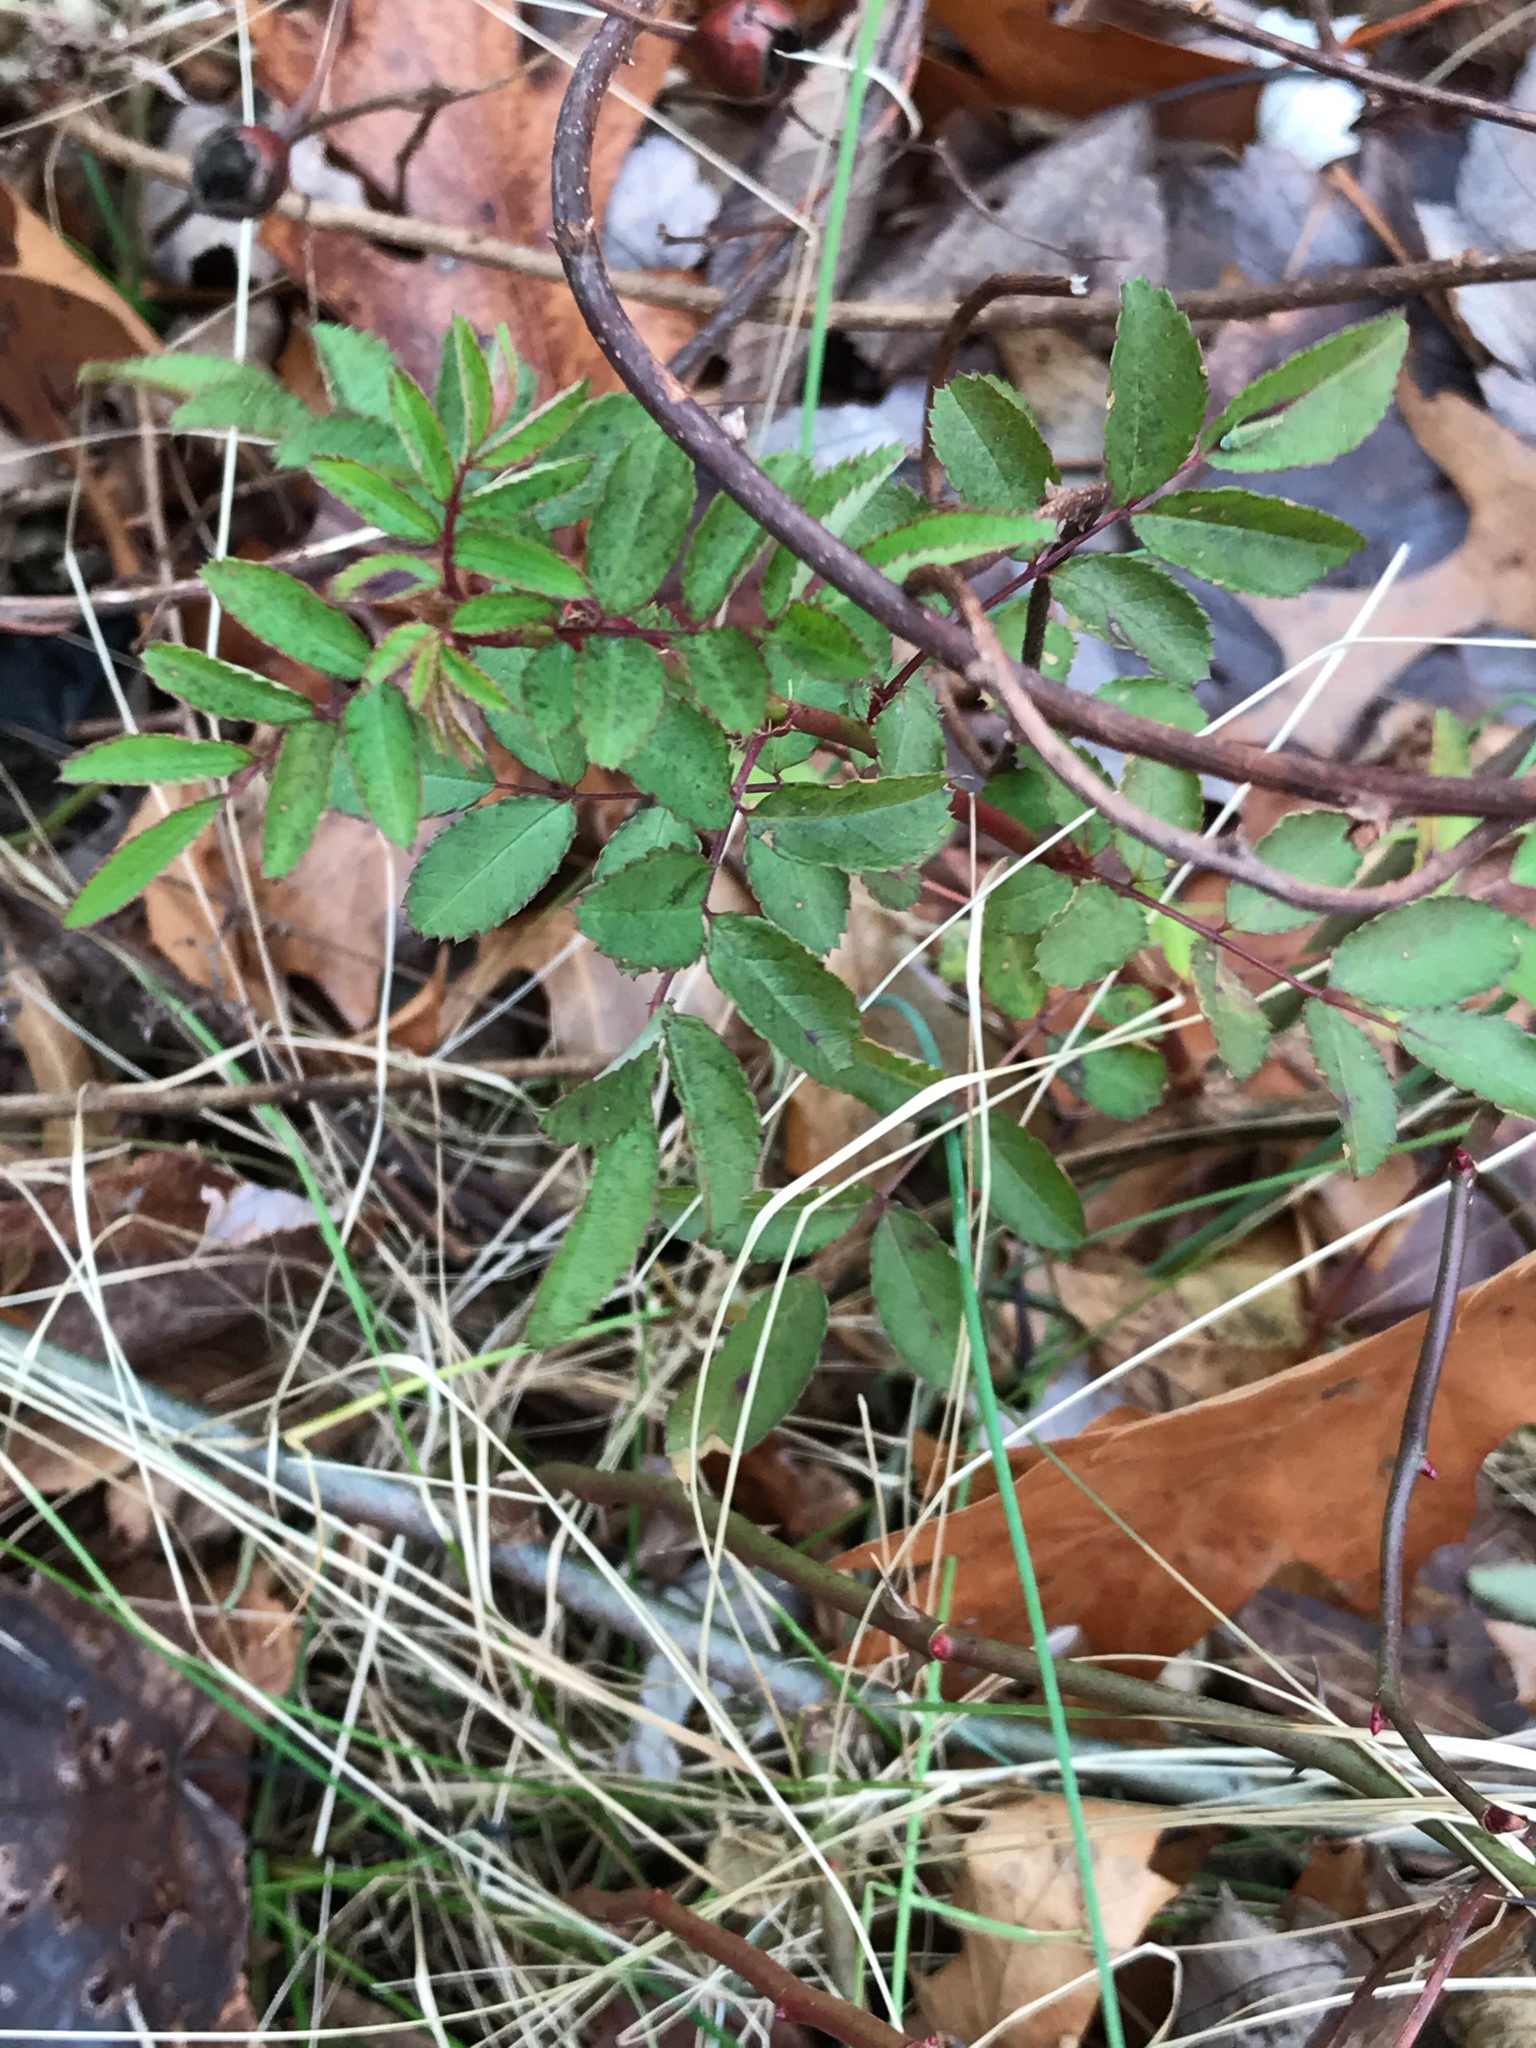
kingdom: Plantae
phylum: Tracheophyta
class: Magnoliopsida
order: Rosales
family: Rosaceae
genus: Rosa
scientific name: Rosa multiflora
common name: Multiflora rose
